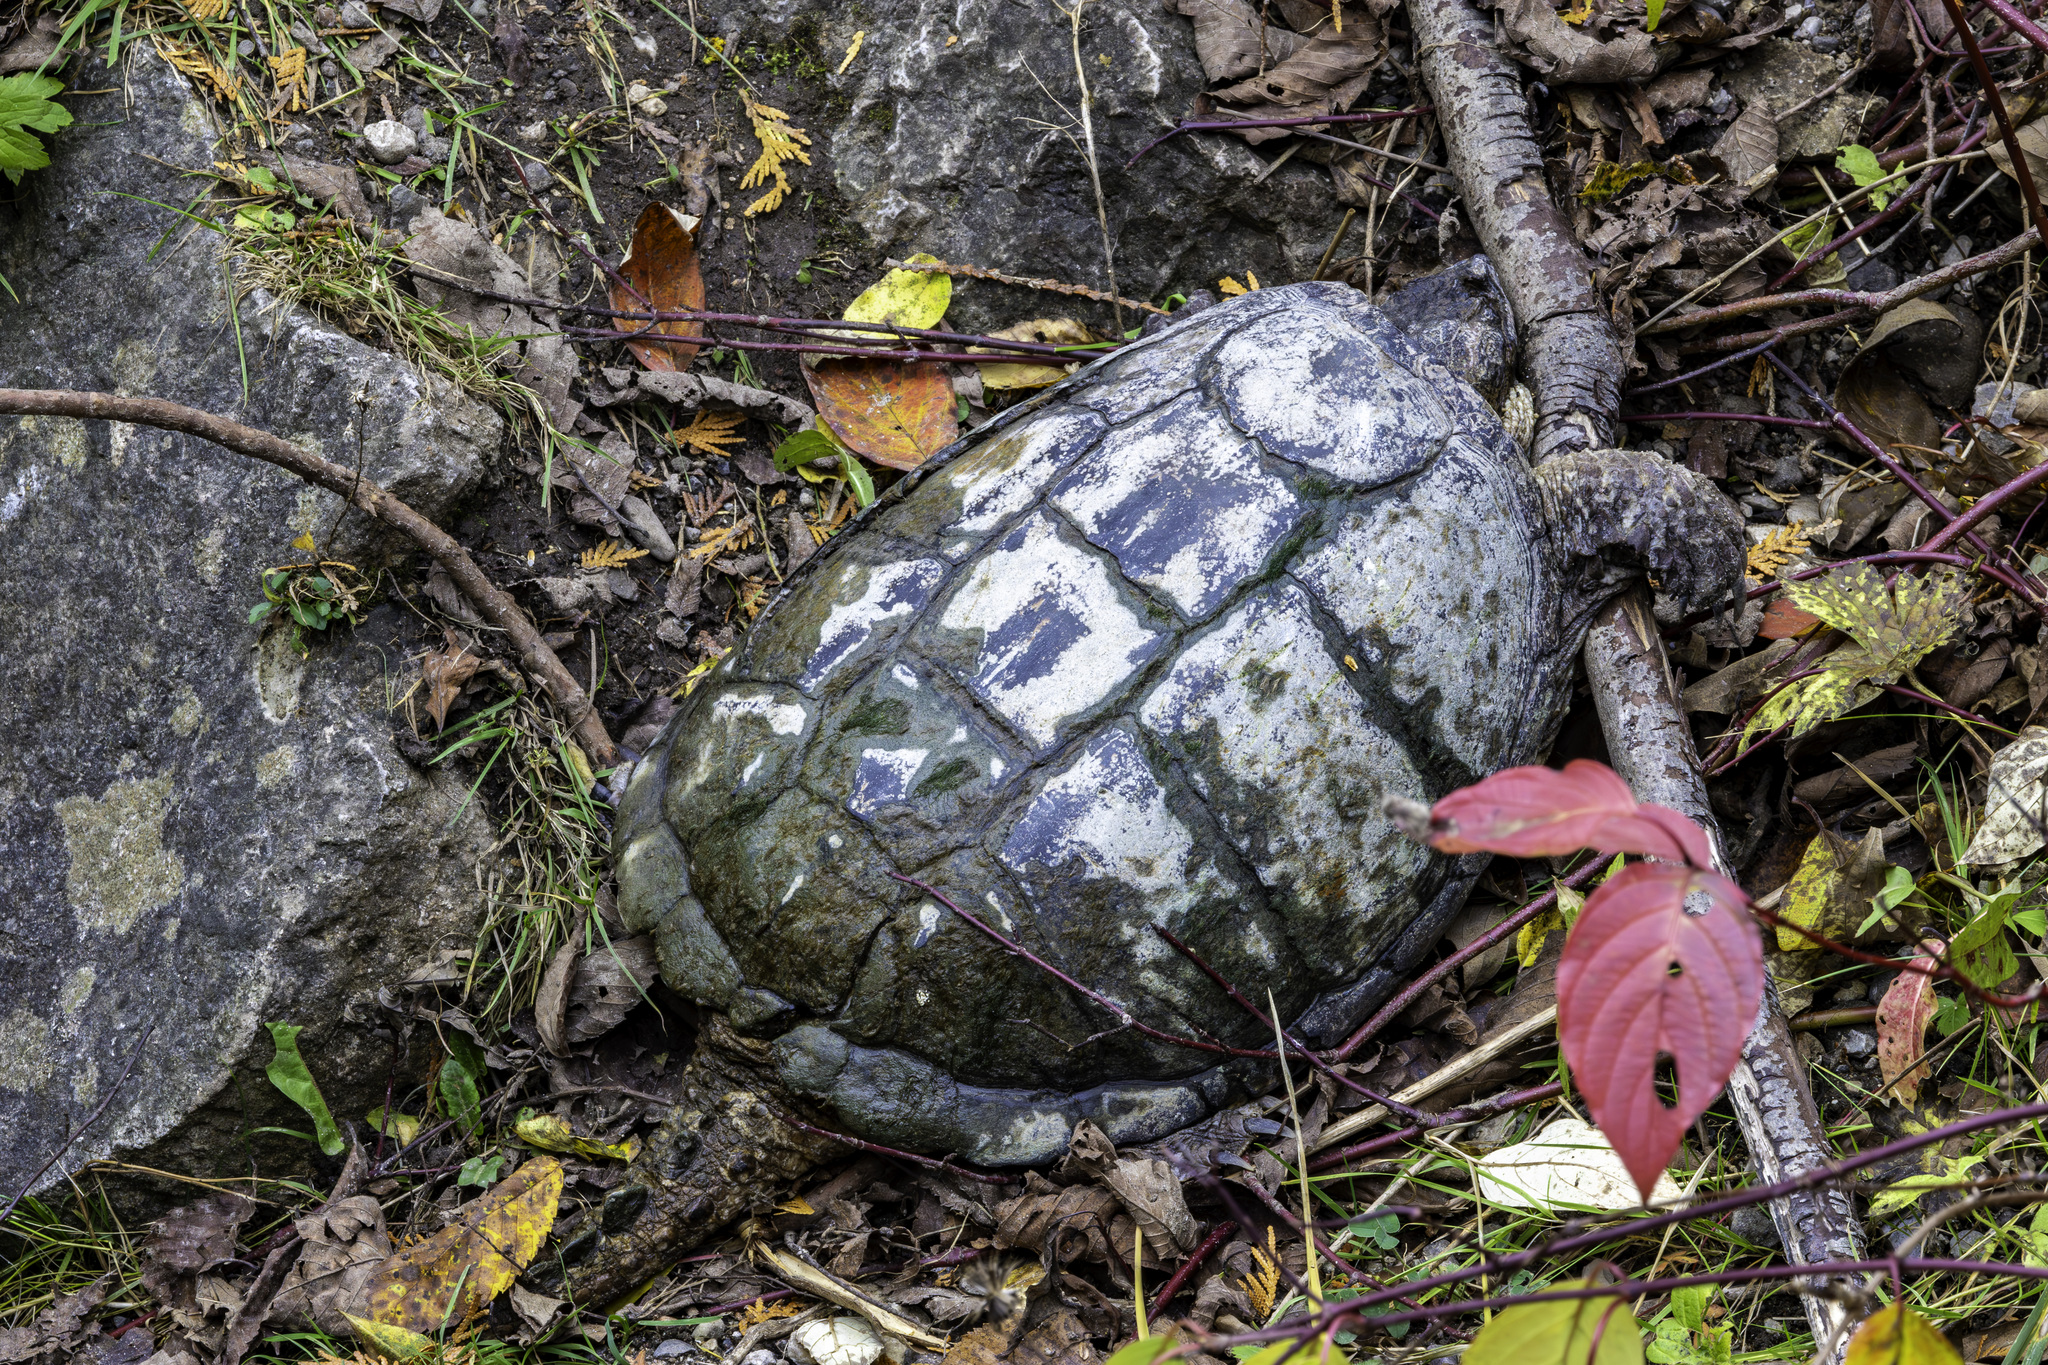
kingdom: Animalia
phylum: Chordata
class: Testudines
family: Chelydridae
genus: Chelydra
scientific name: Chelydra serpentina
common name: Common snapping turtle
